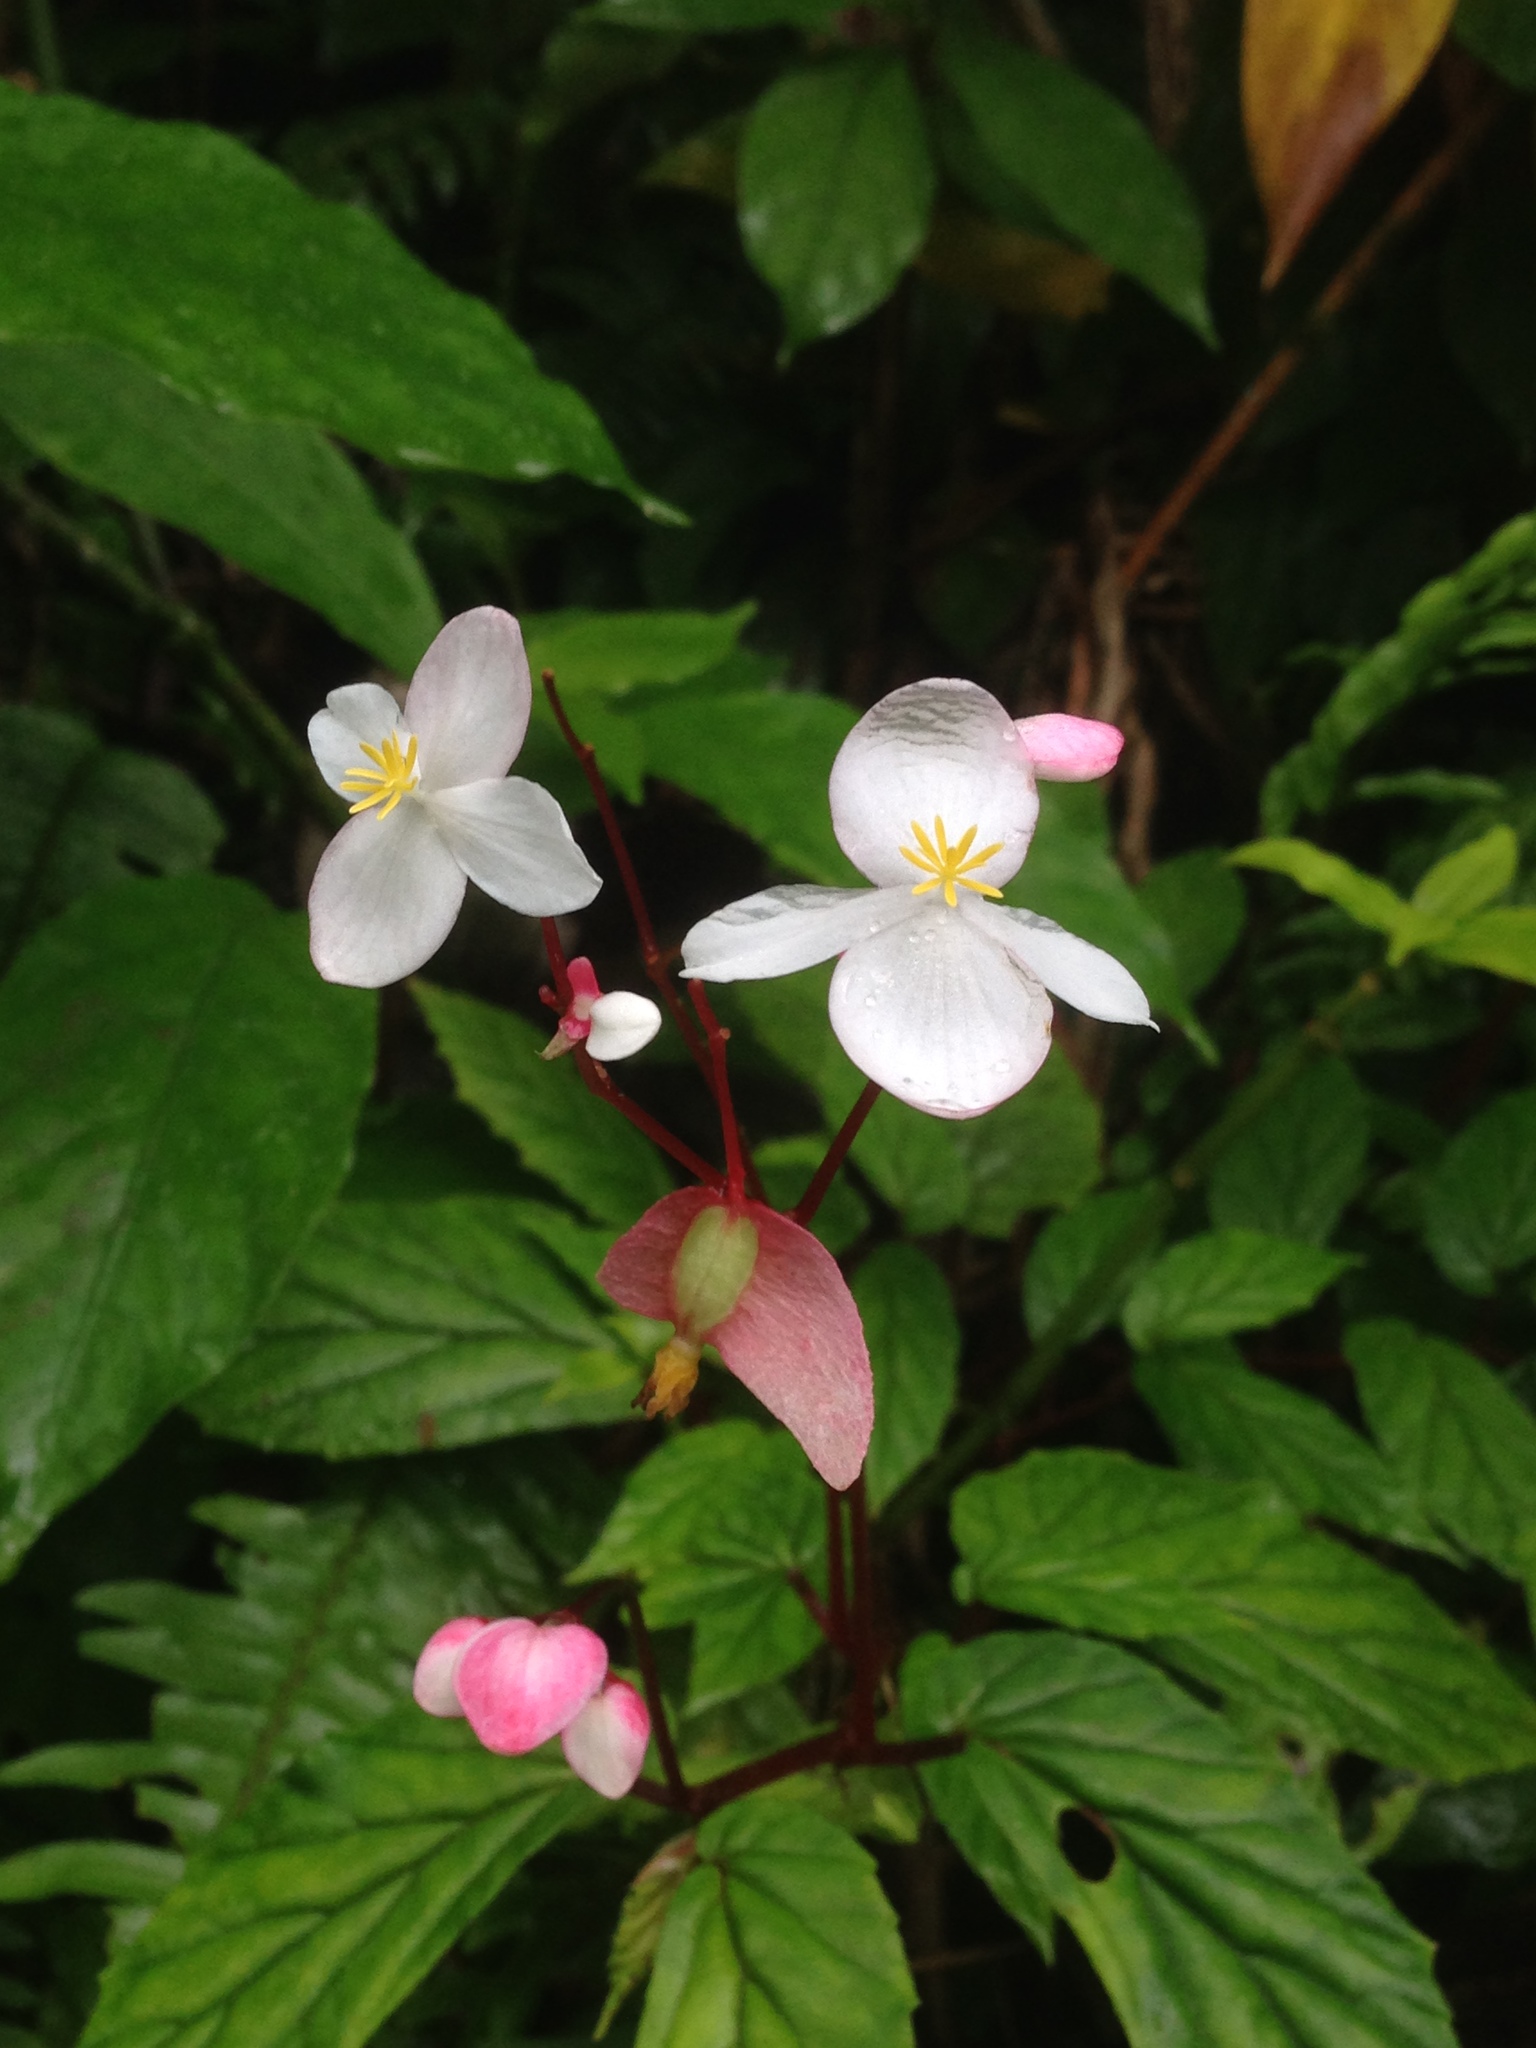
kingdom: Plantae
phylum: Tracheophyta
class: Magnoliopsida
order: Cucurbitales
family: Begoniaceae
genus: Begonia
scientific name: Begonia decandra
